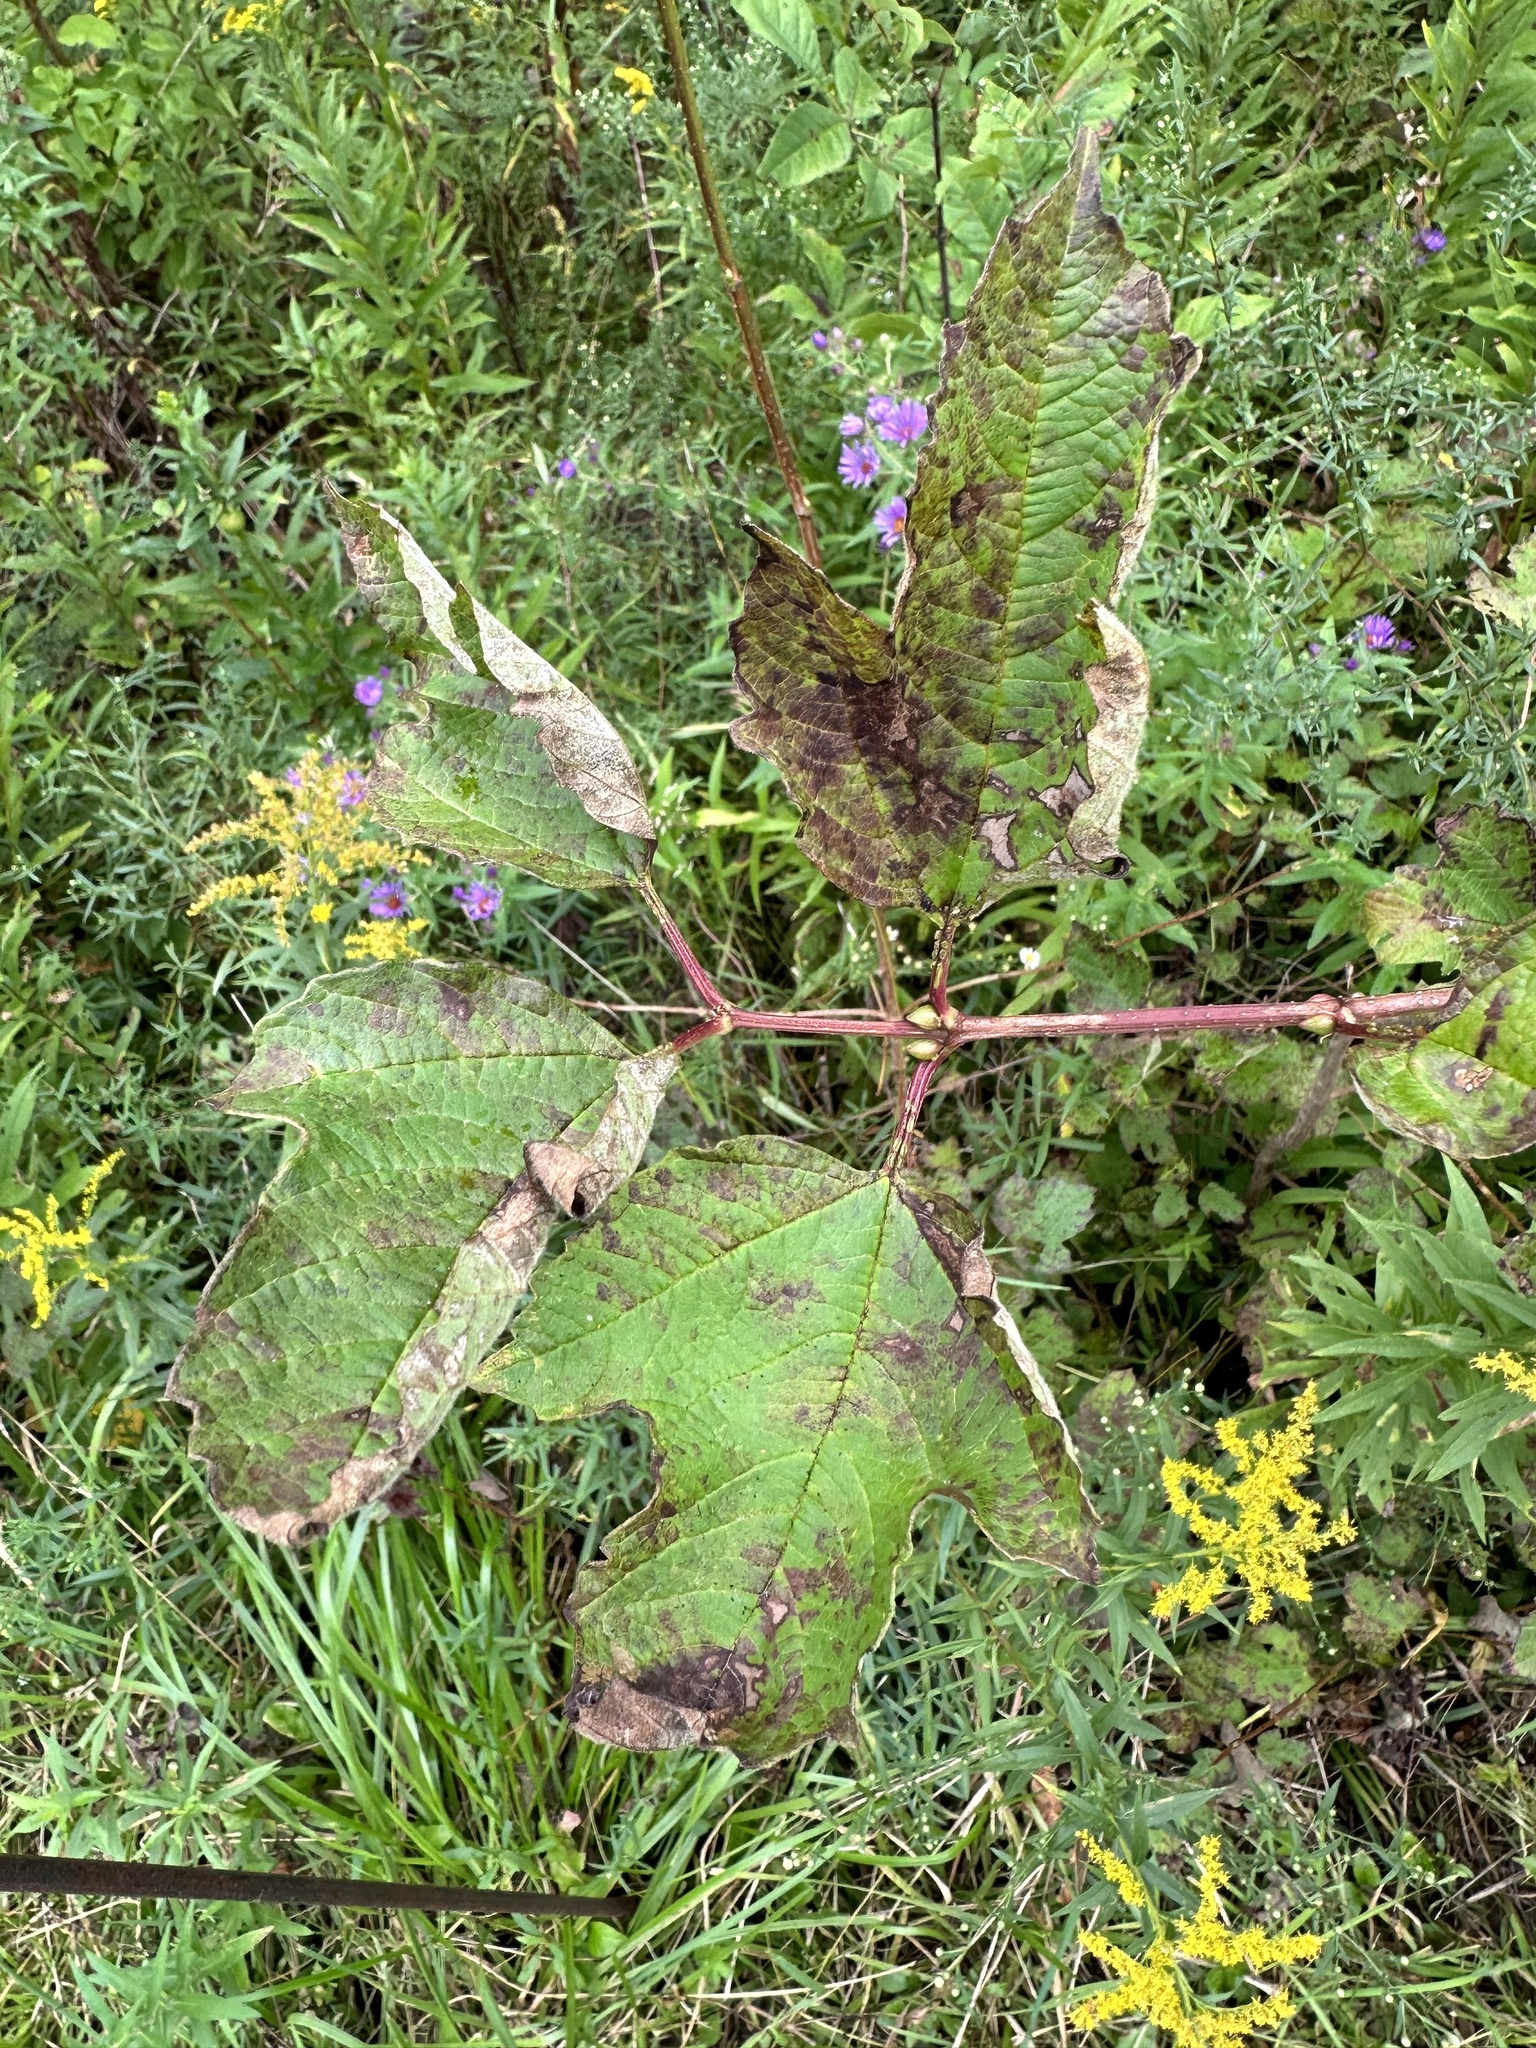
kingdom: Plantae
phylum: Tracheophyta
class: Magnoliopsida
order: Dipsacales
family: Viburnaceae
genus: Viburnum
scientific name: Viburnum opulus
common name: Guelder-rose
